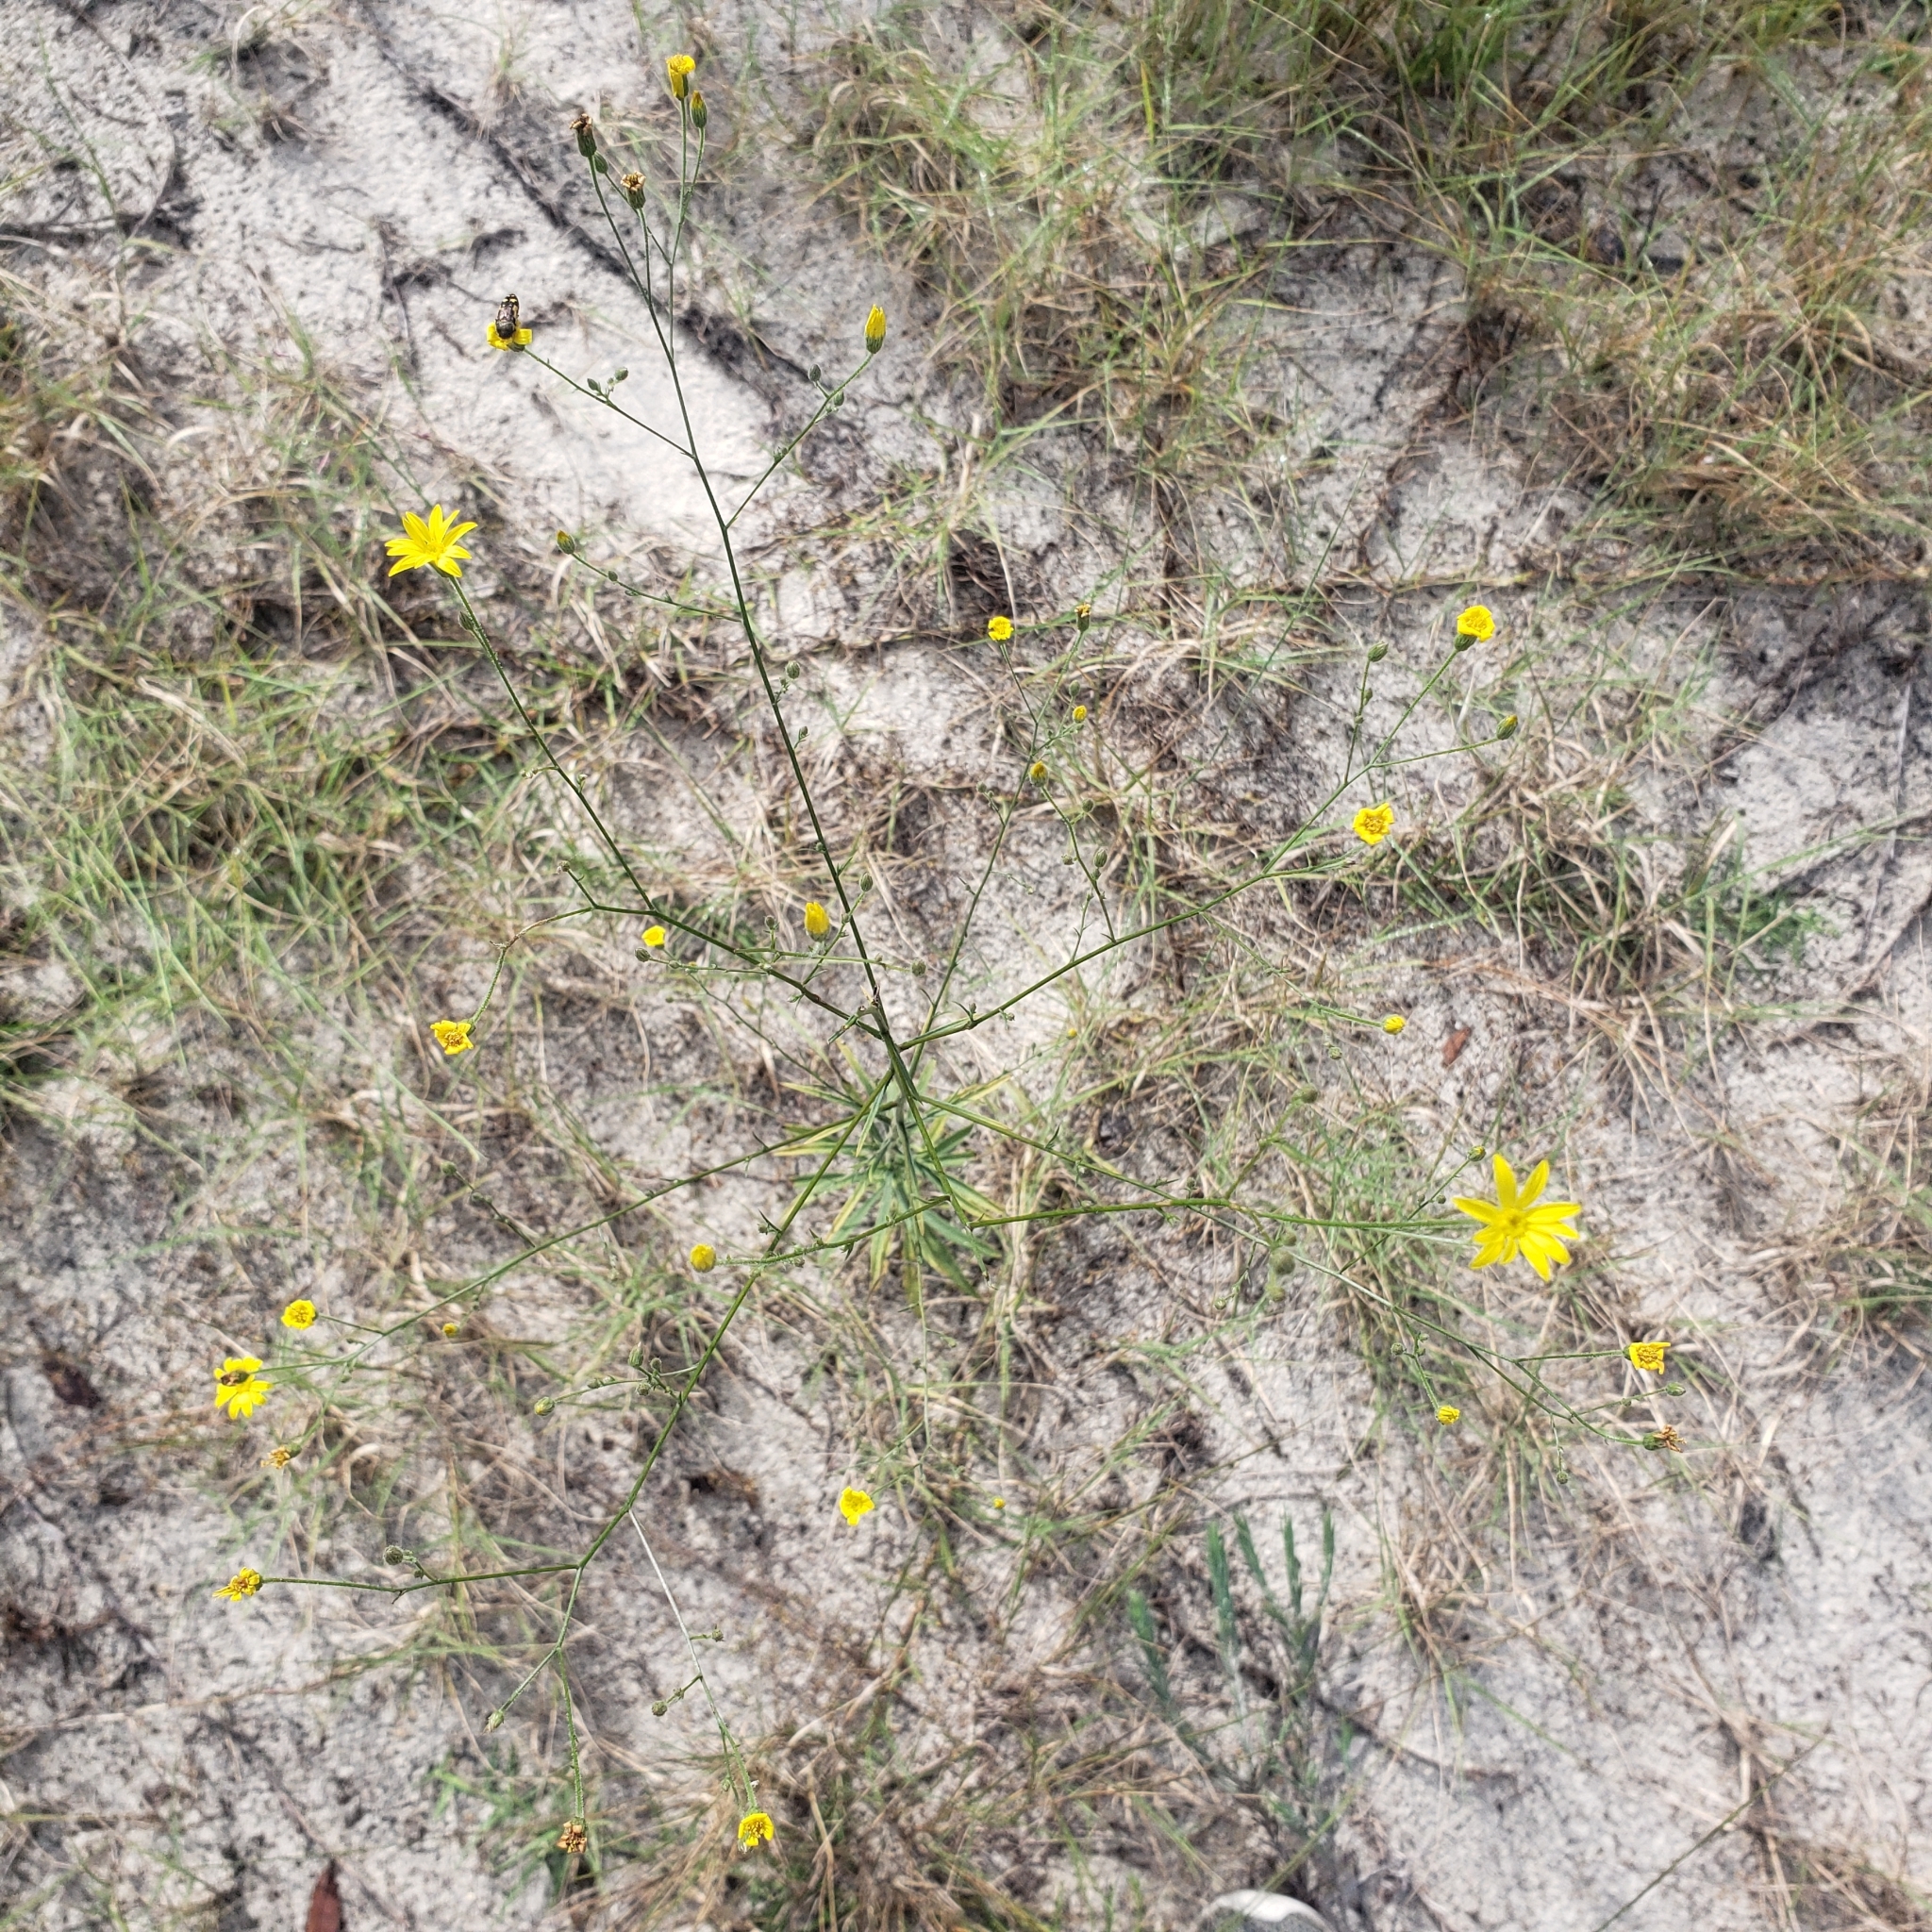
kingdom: Plantae
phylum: Tracheophyta
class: Magnoliopsida
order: Asterales
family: Asteraceae
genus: Croptilon
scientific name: Croptilon divaricatum
